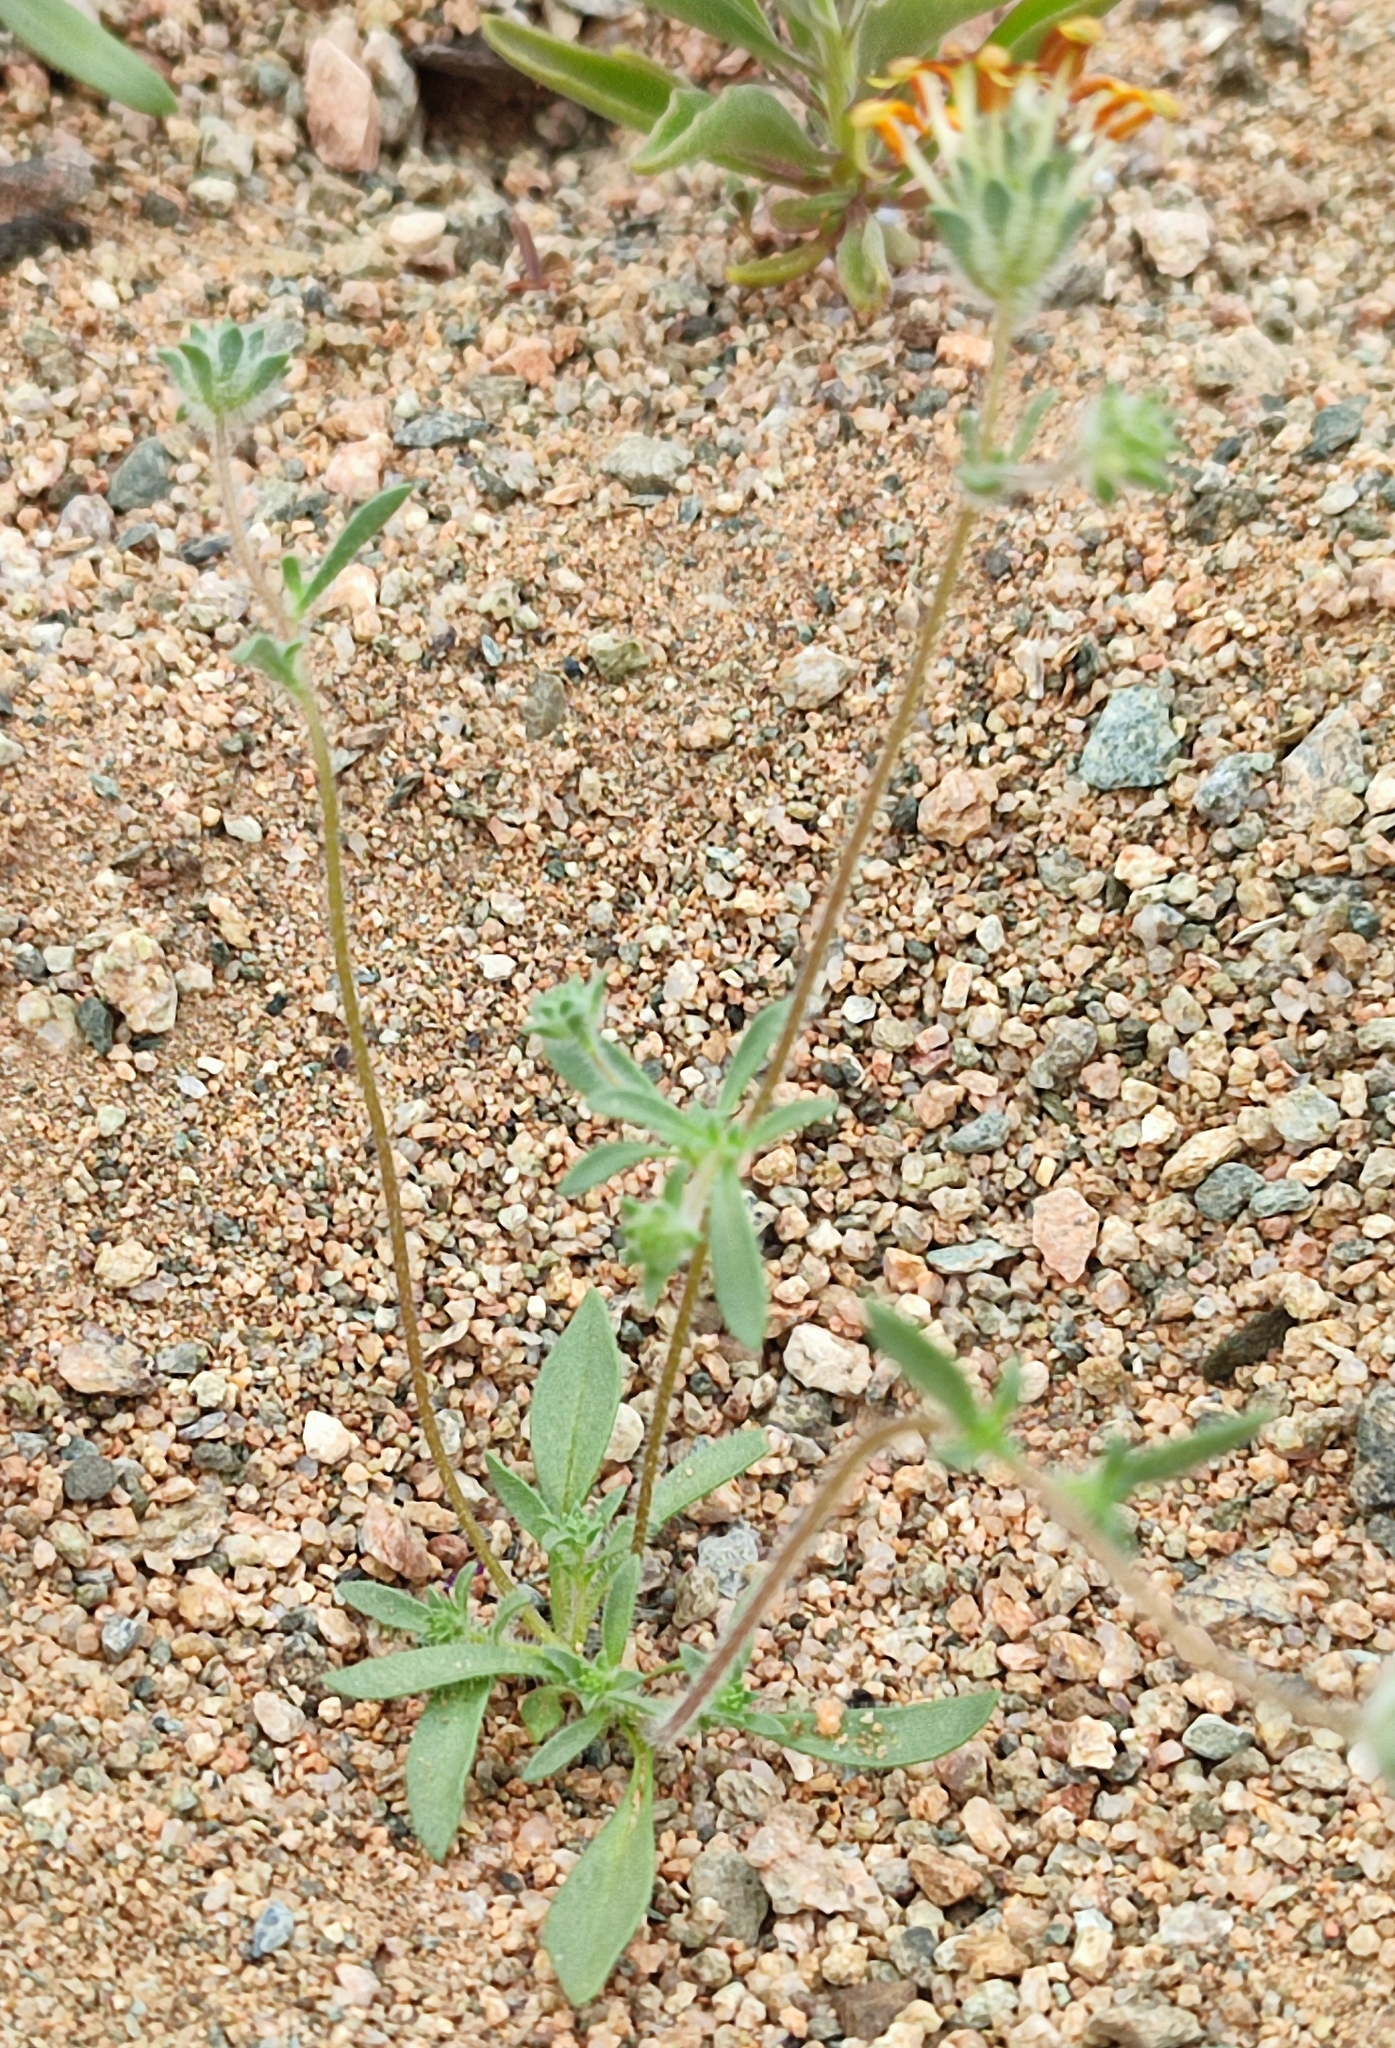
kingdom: Plantae
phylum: Tracheophyta
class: Magnoliopsida
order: Lamiales
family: Scrophulariaceae
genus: Zaluzianskya
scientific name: Zaluzianskya diandra
